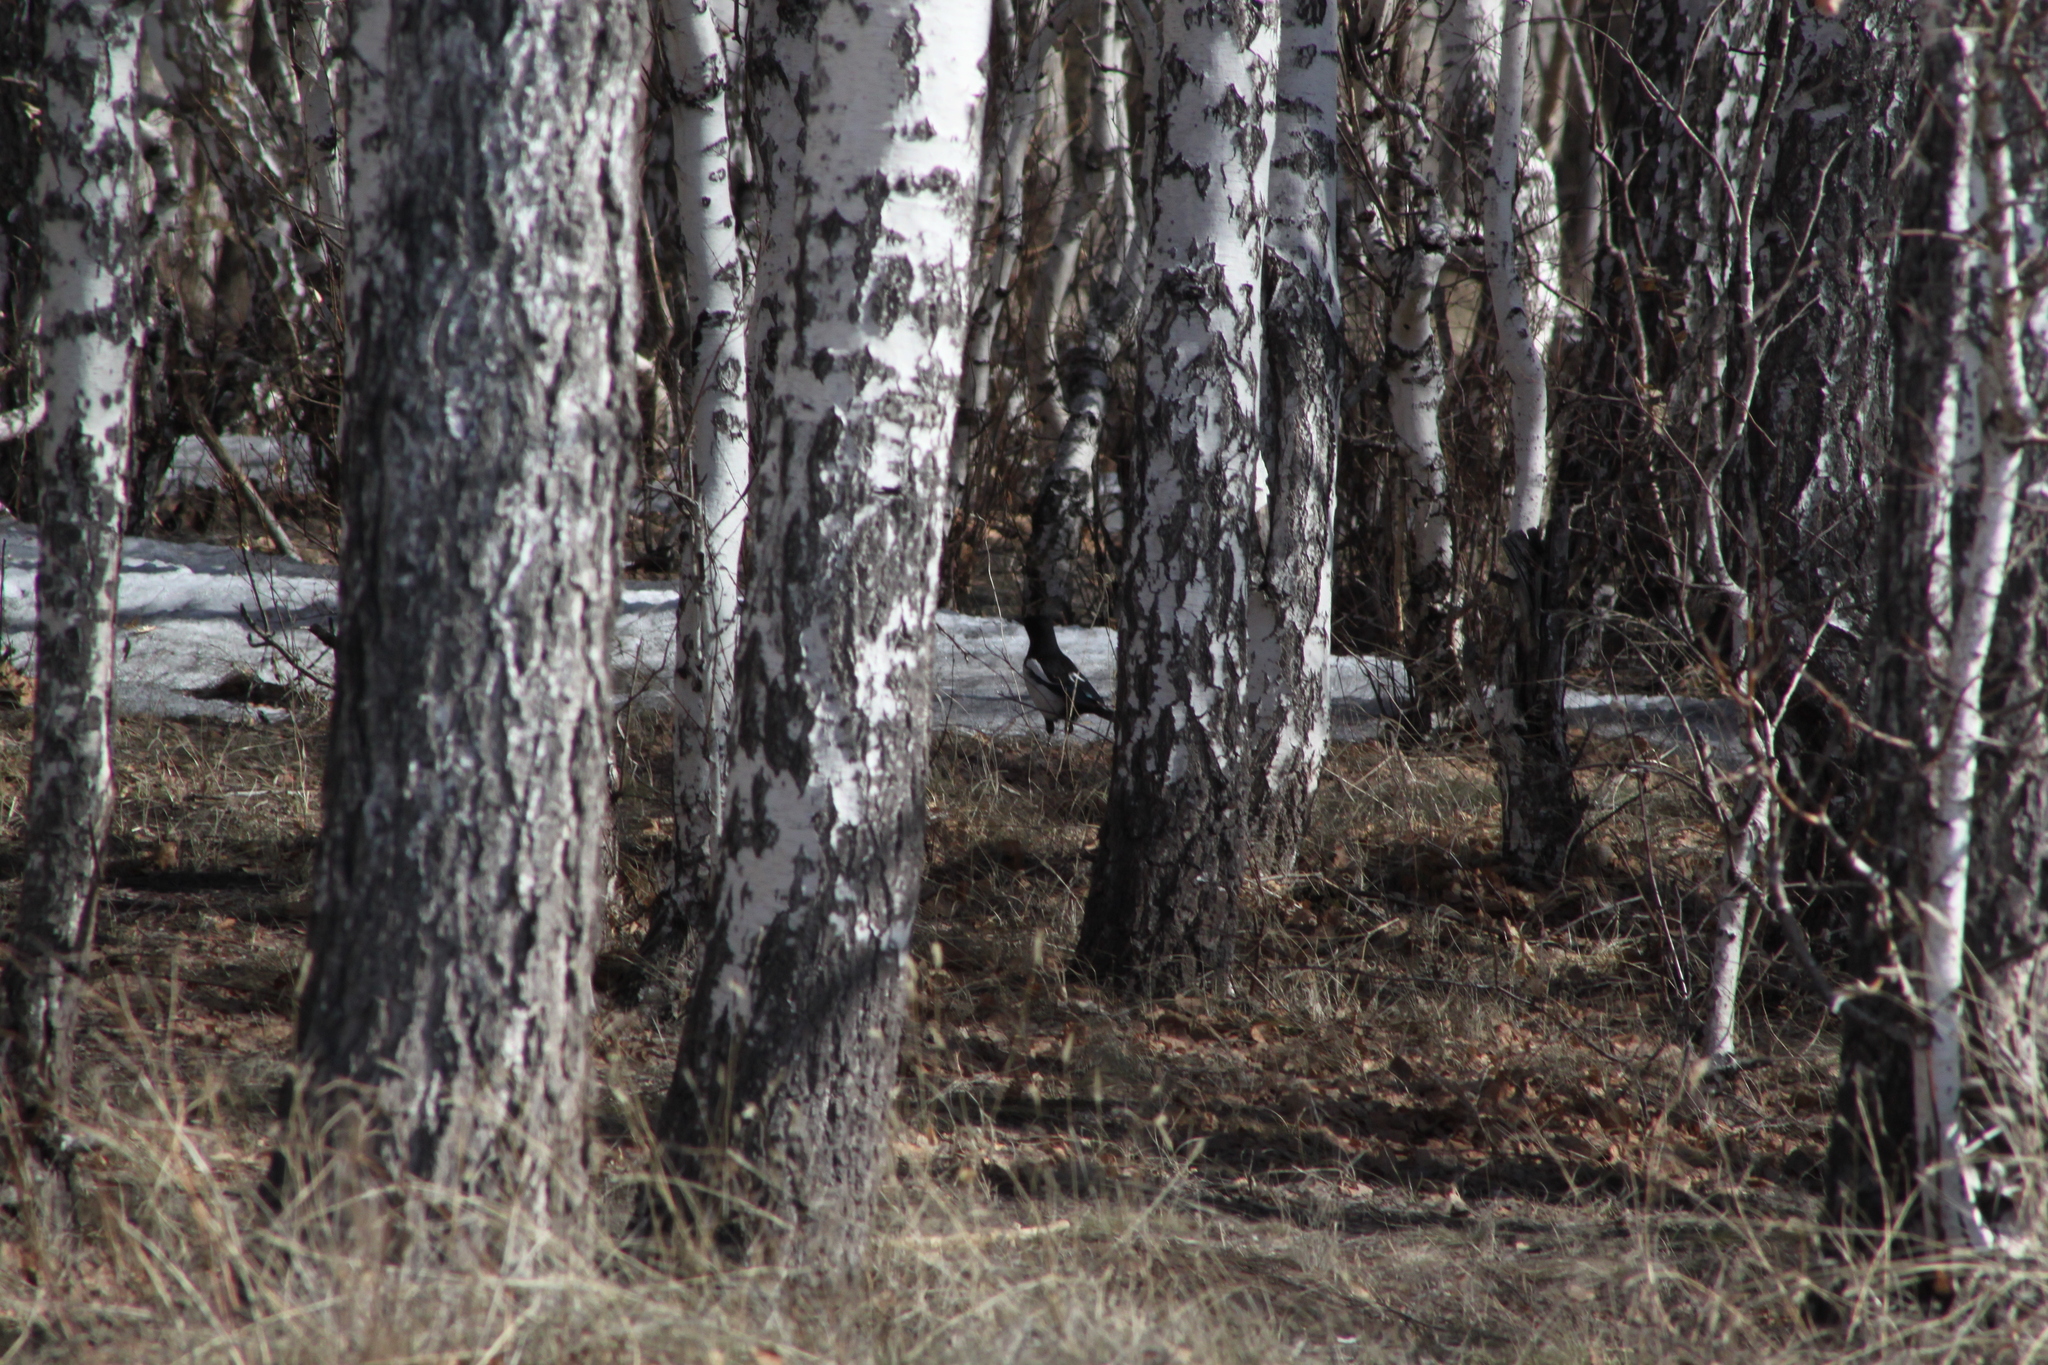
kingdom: Animalia
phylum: Chordata
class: Aves
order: Passeriformes
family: Corvidae
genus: Pica
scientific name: Pica pica
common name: Eurasian magpie
